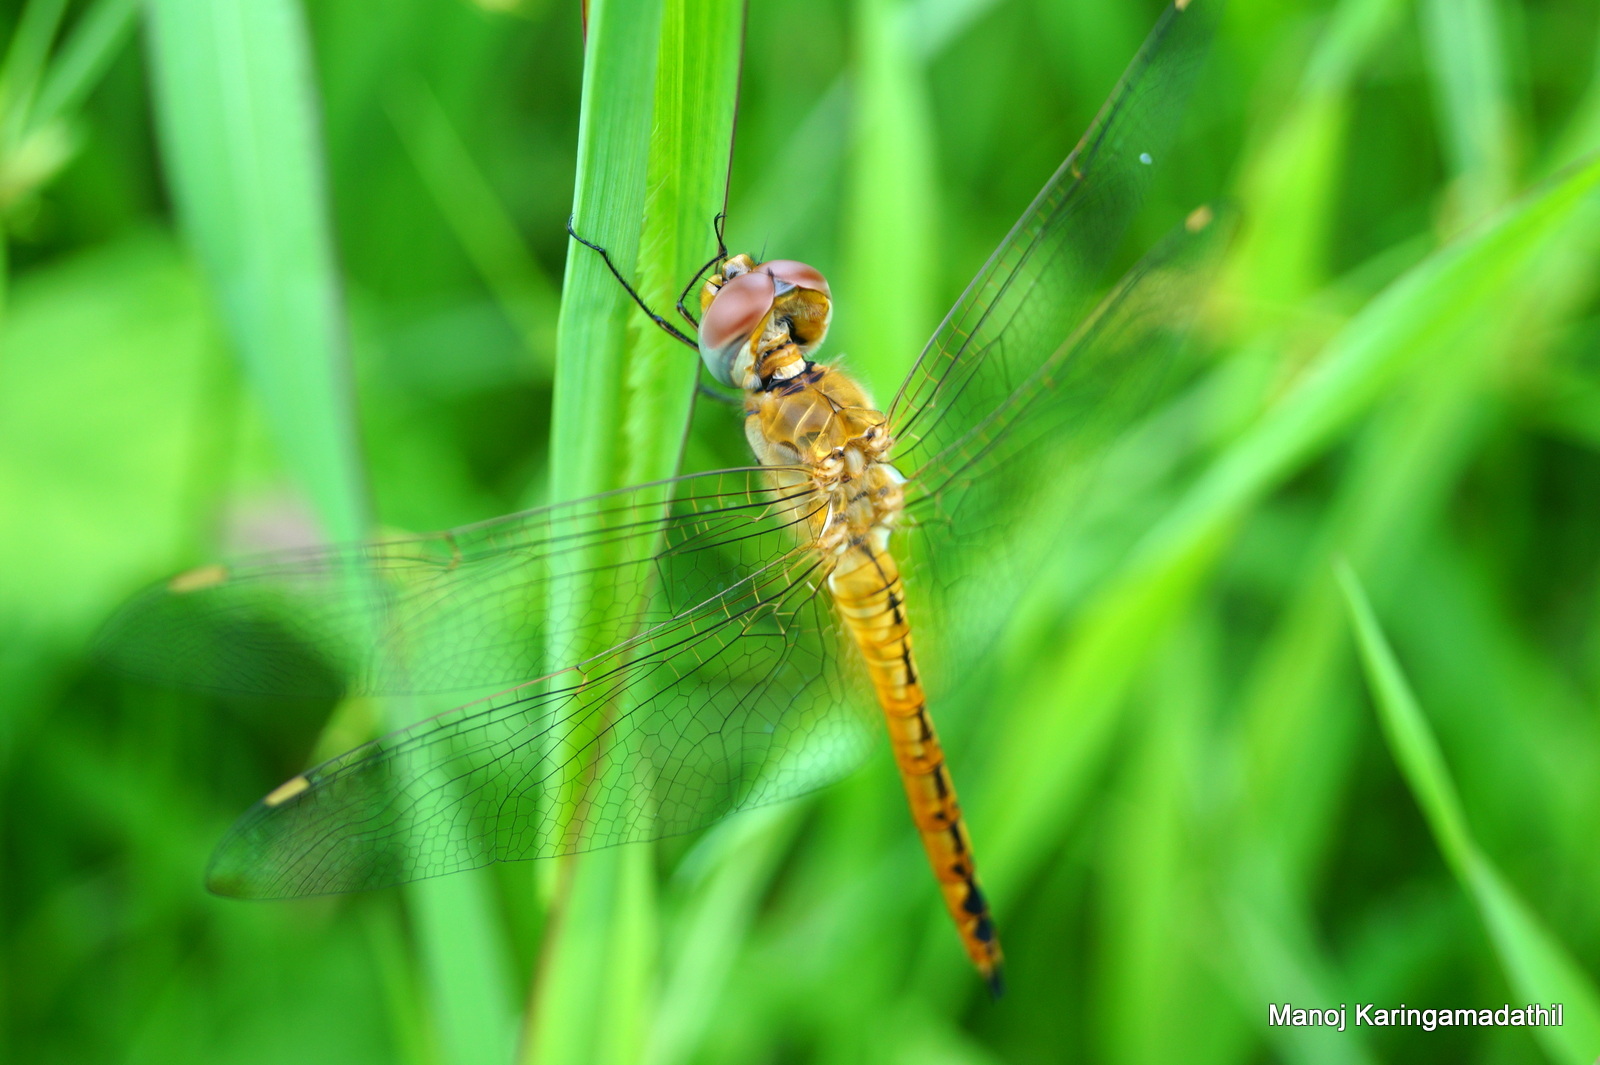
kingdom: Animalia
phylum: Arthropoda
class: Insecta
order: Odonata
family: Libellulidae
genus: Pantala
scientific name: Pantala flavescens
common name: Wandering glider
